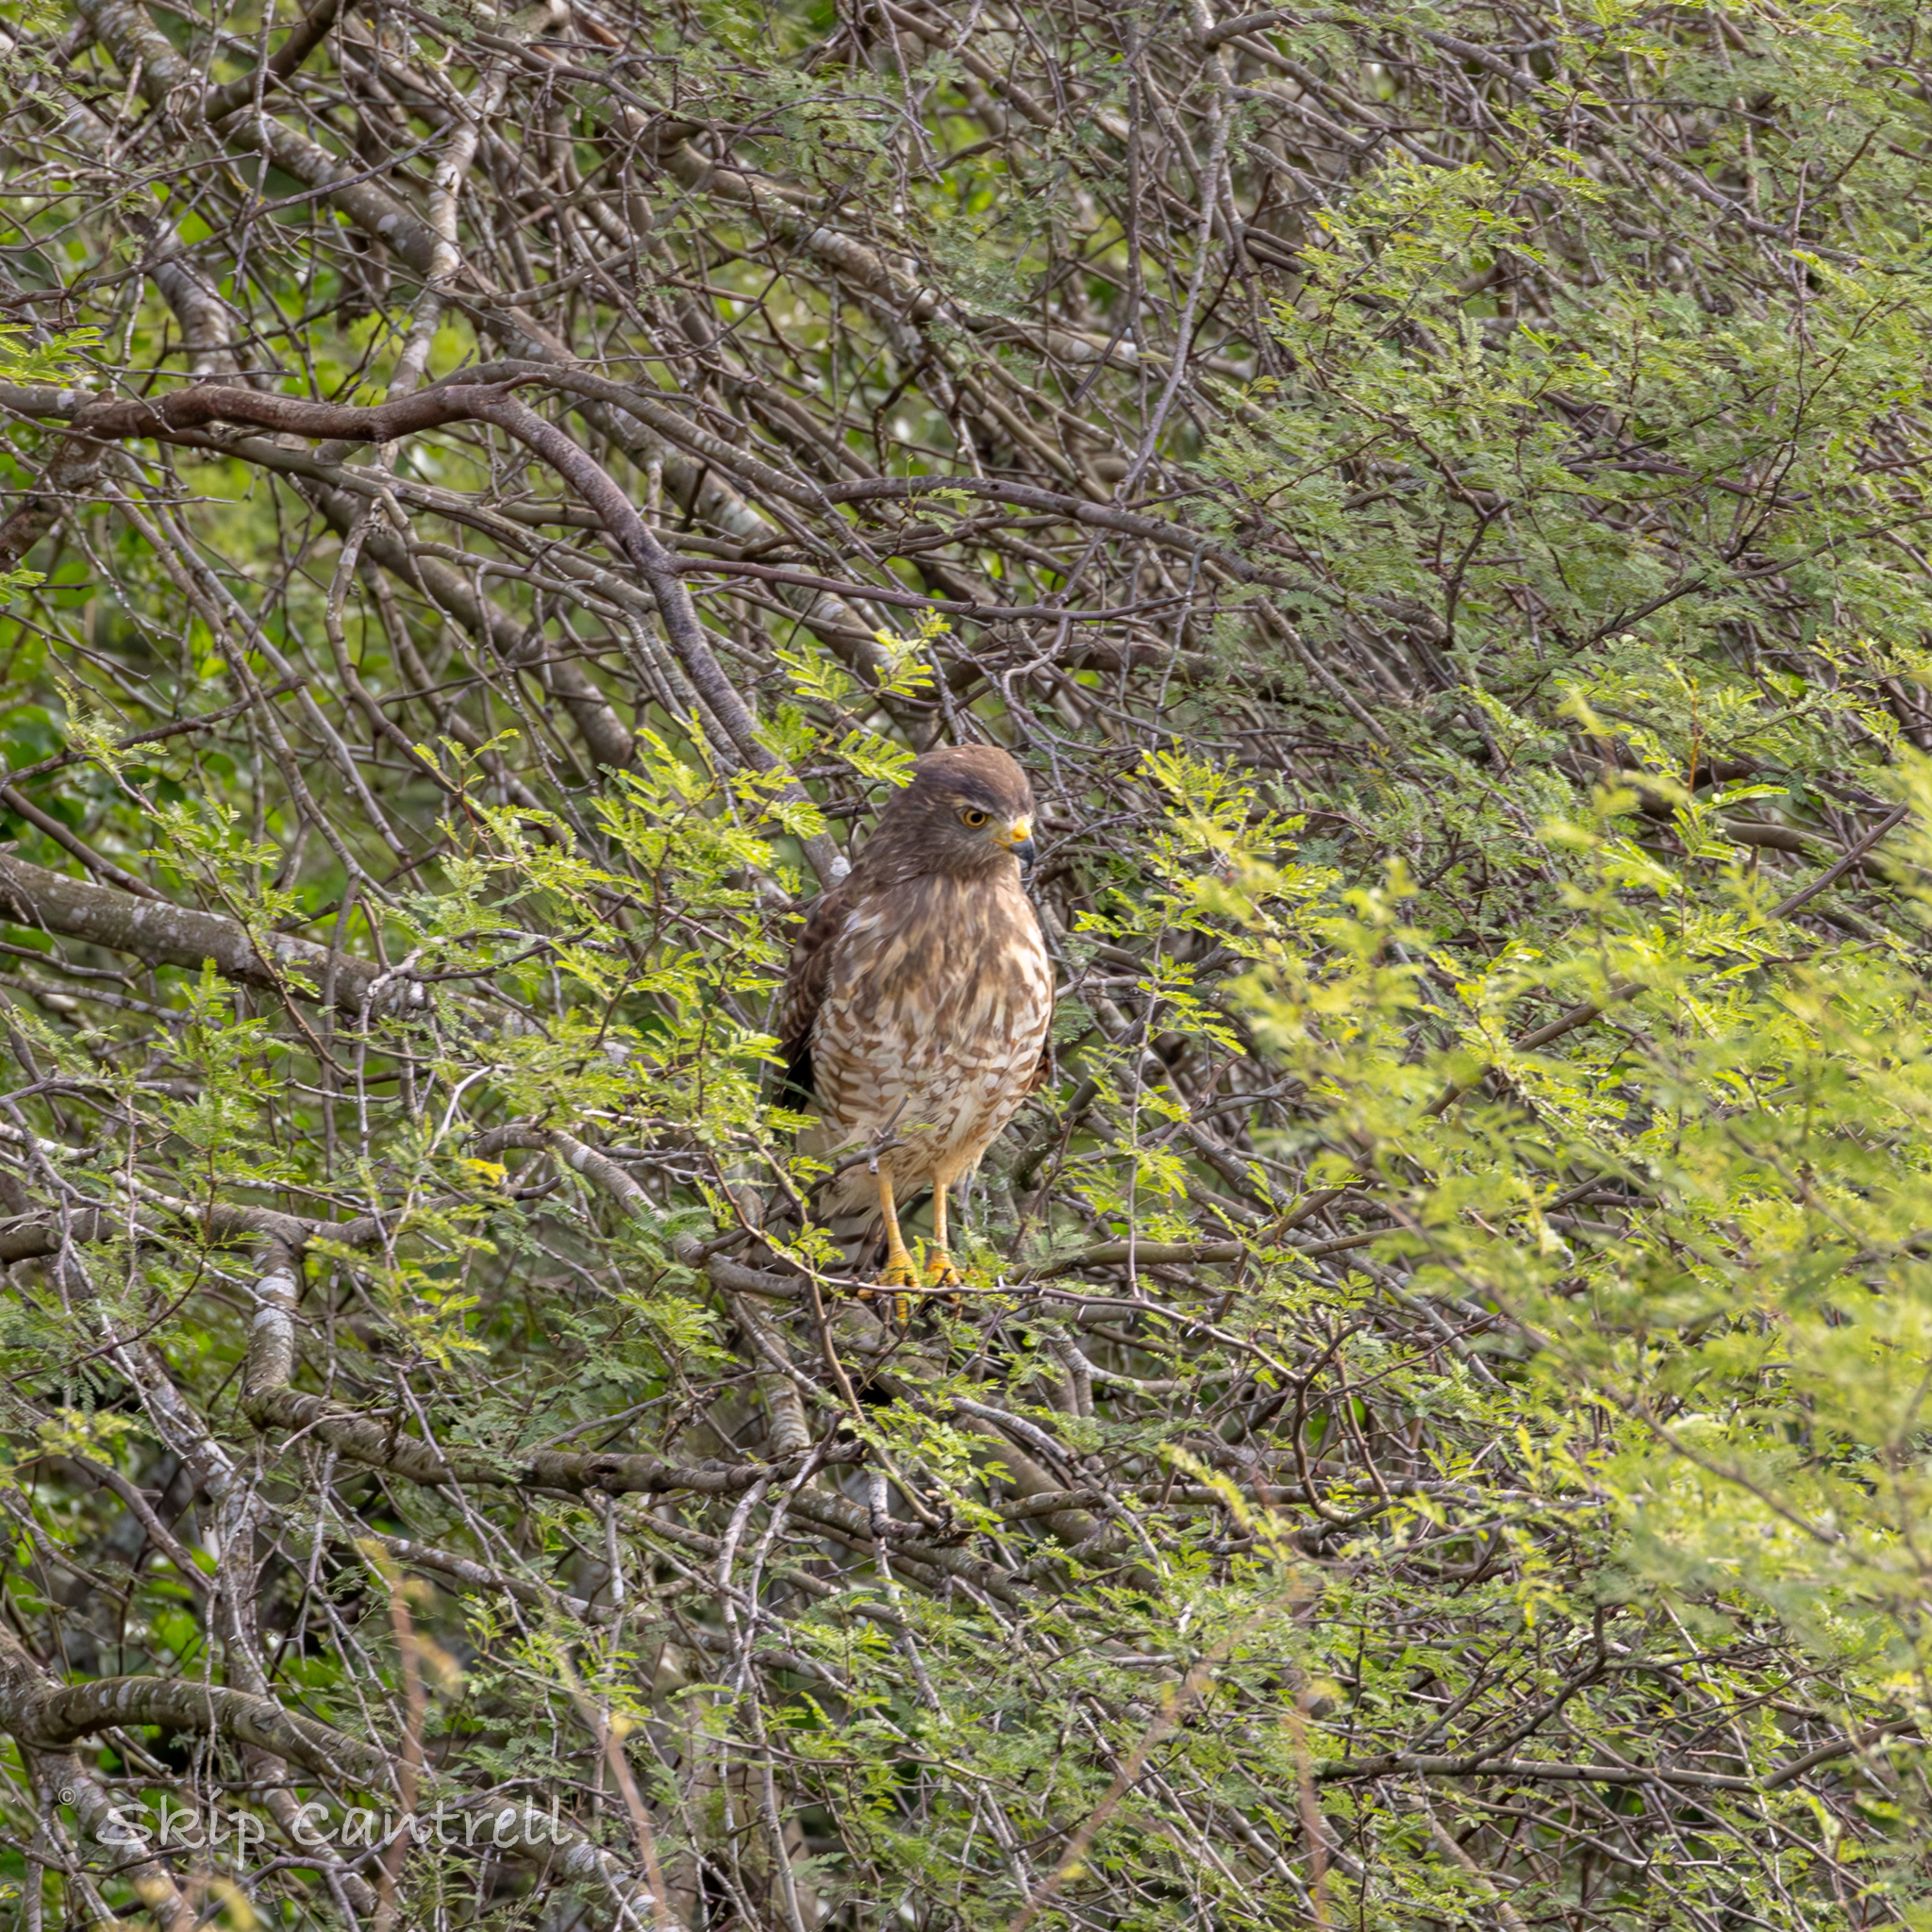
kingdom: Animalia
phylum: Chordata
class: Aves
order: Accipitriformes
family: Accipitridae
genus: Rupornis
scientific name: Rupornis magnirostris
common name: Roadside hawk
